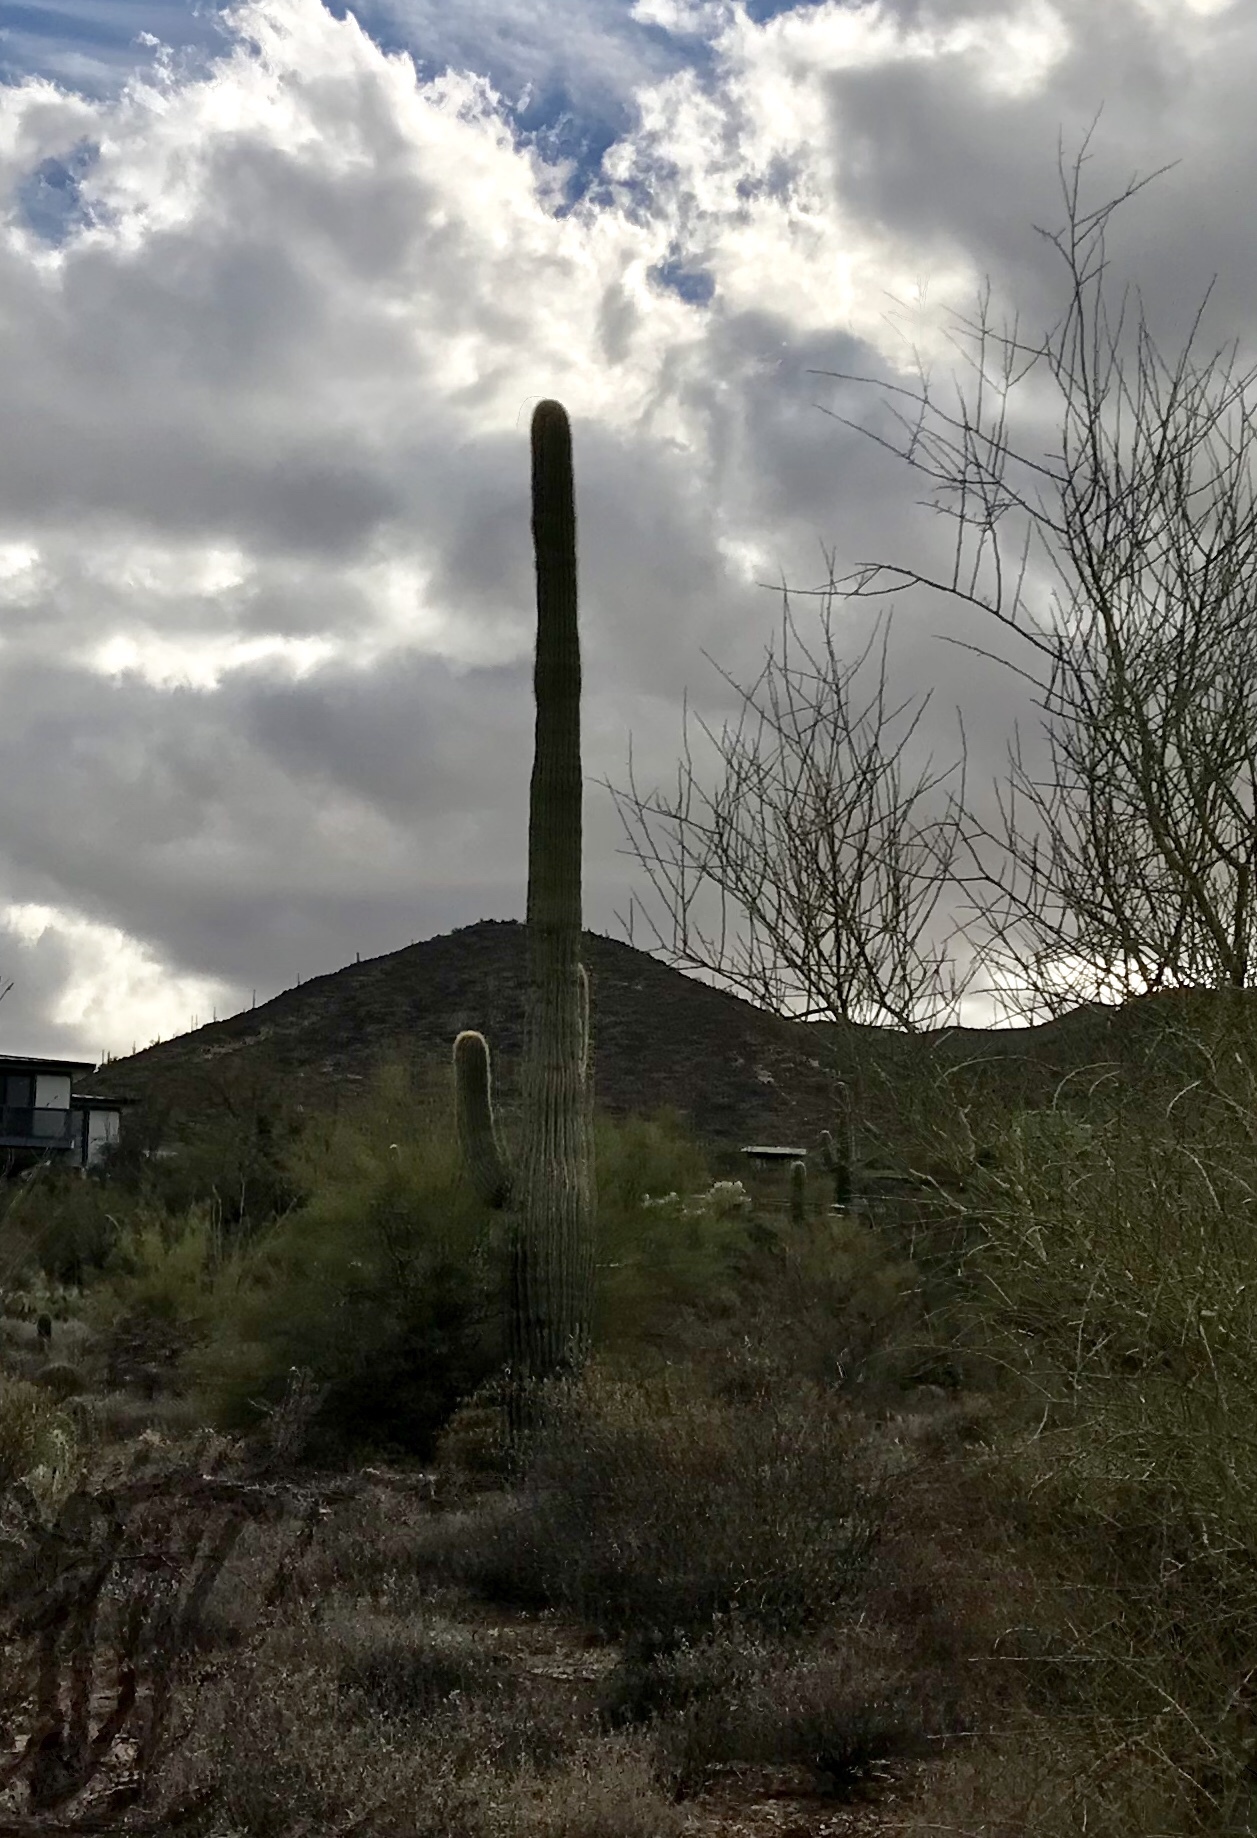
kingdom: Plantae
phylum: Tracheophyta
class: Magnoliopsida
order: Caryophyllales
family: Cactaceae
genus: Carnegiea
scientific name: Carnegiea gigantea
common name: Saguaro
